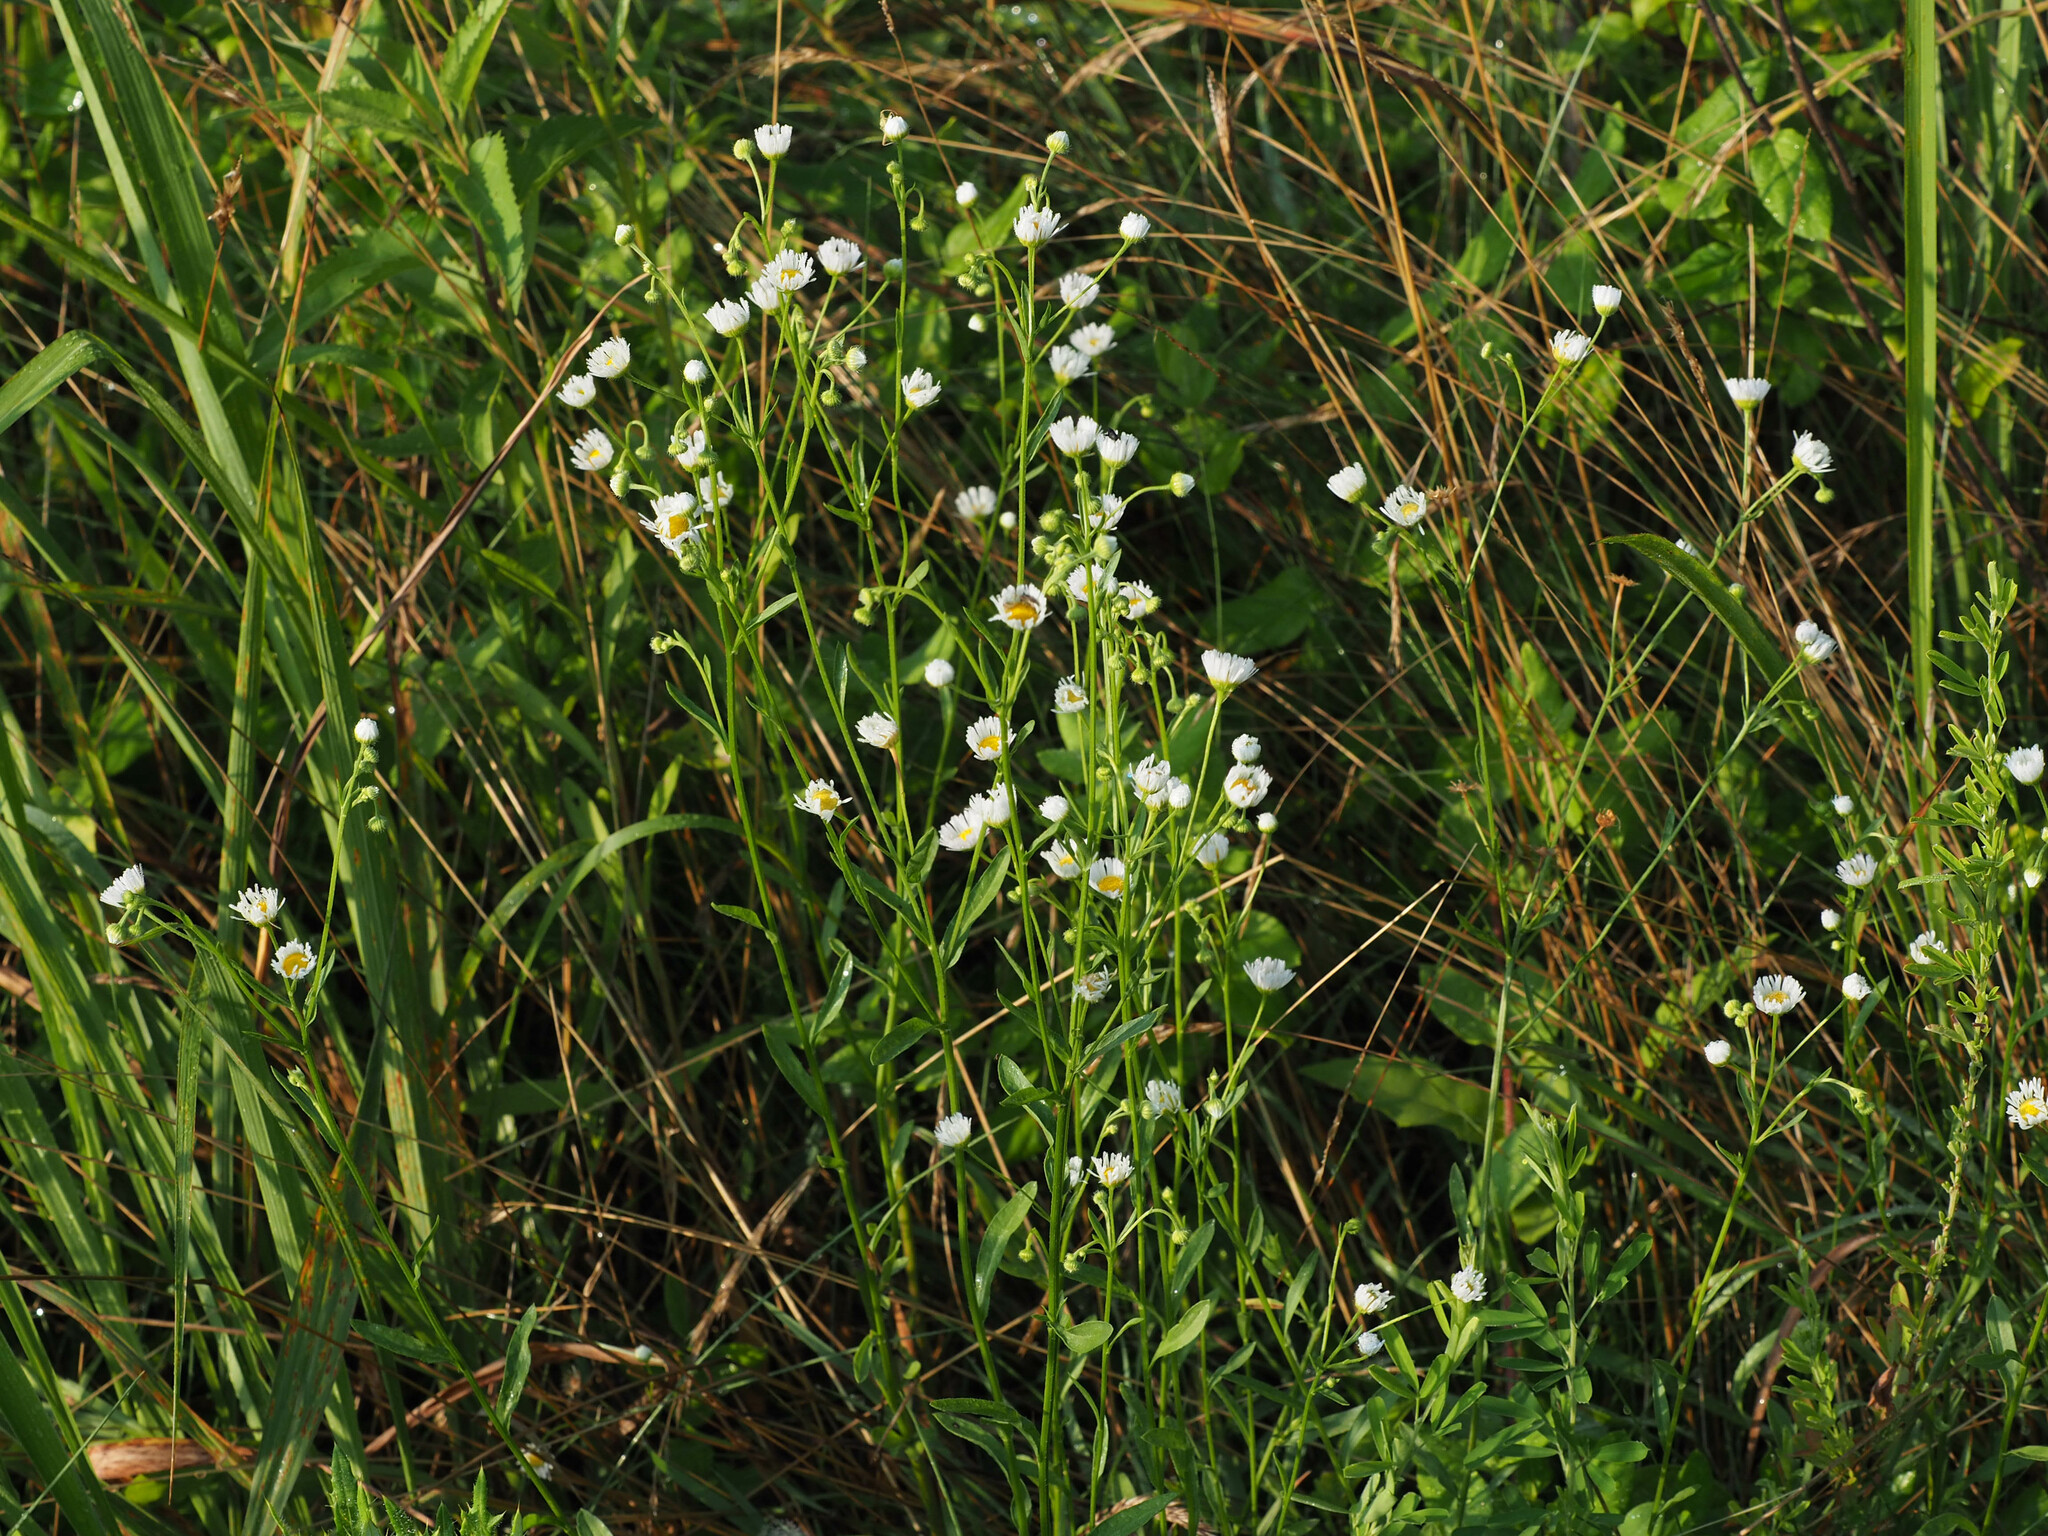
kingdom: Plantae
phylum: Tracheophyta
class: Magnoliopsida
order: Asterales
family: Asteraceae
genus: Erigeron
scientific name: Erigeron strigosus
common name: Common eastern fleabane
